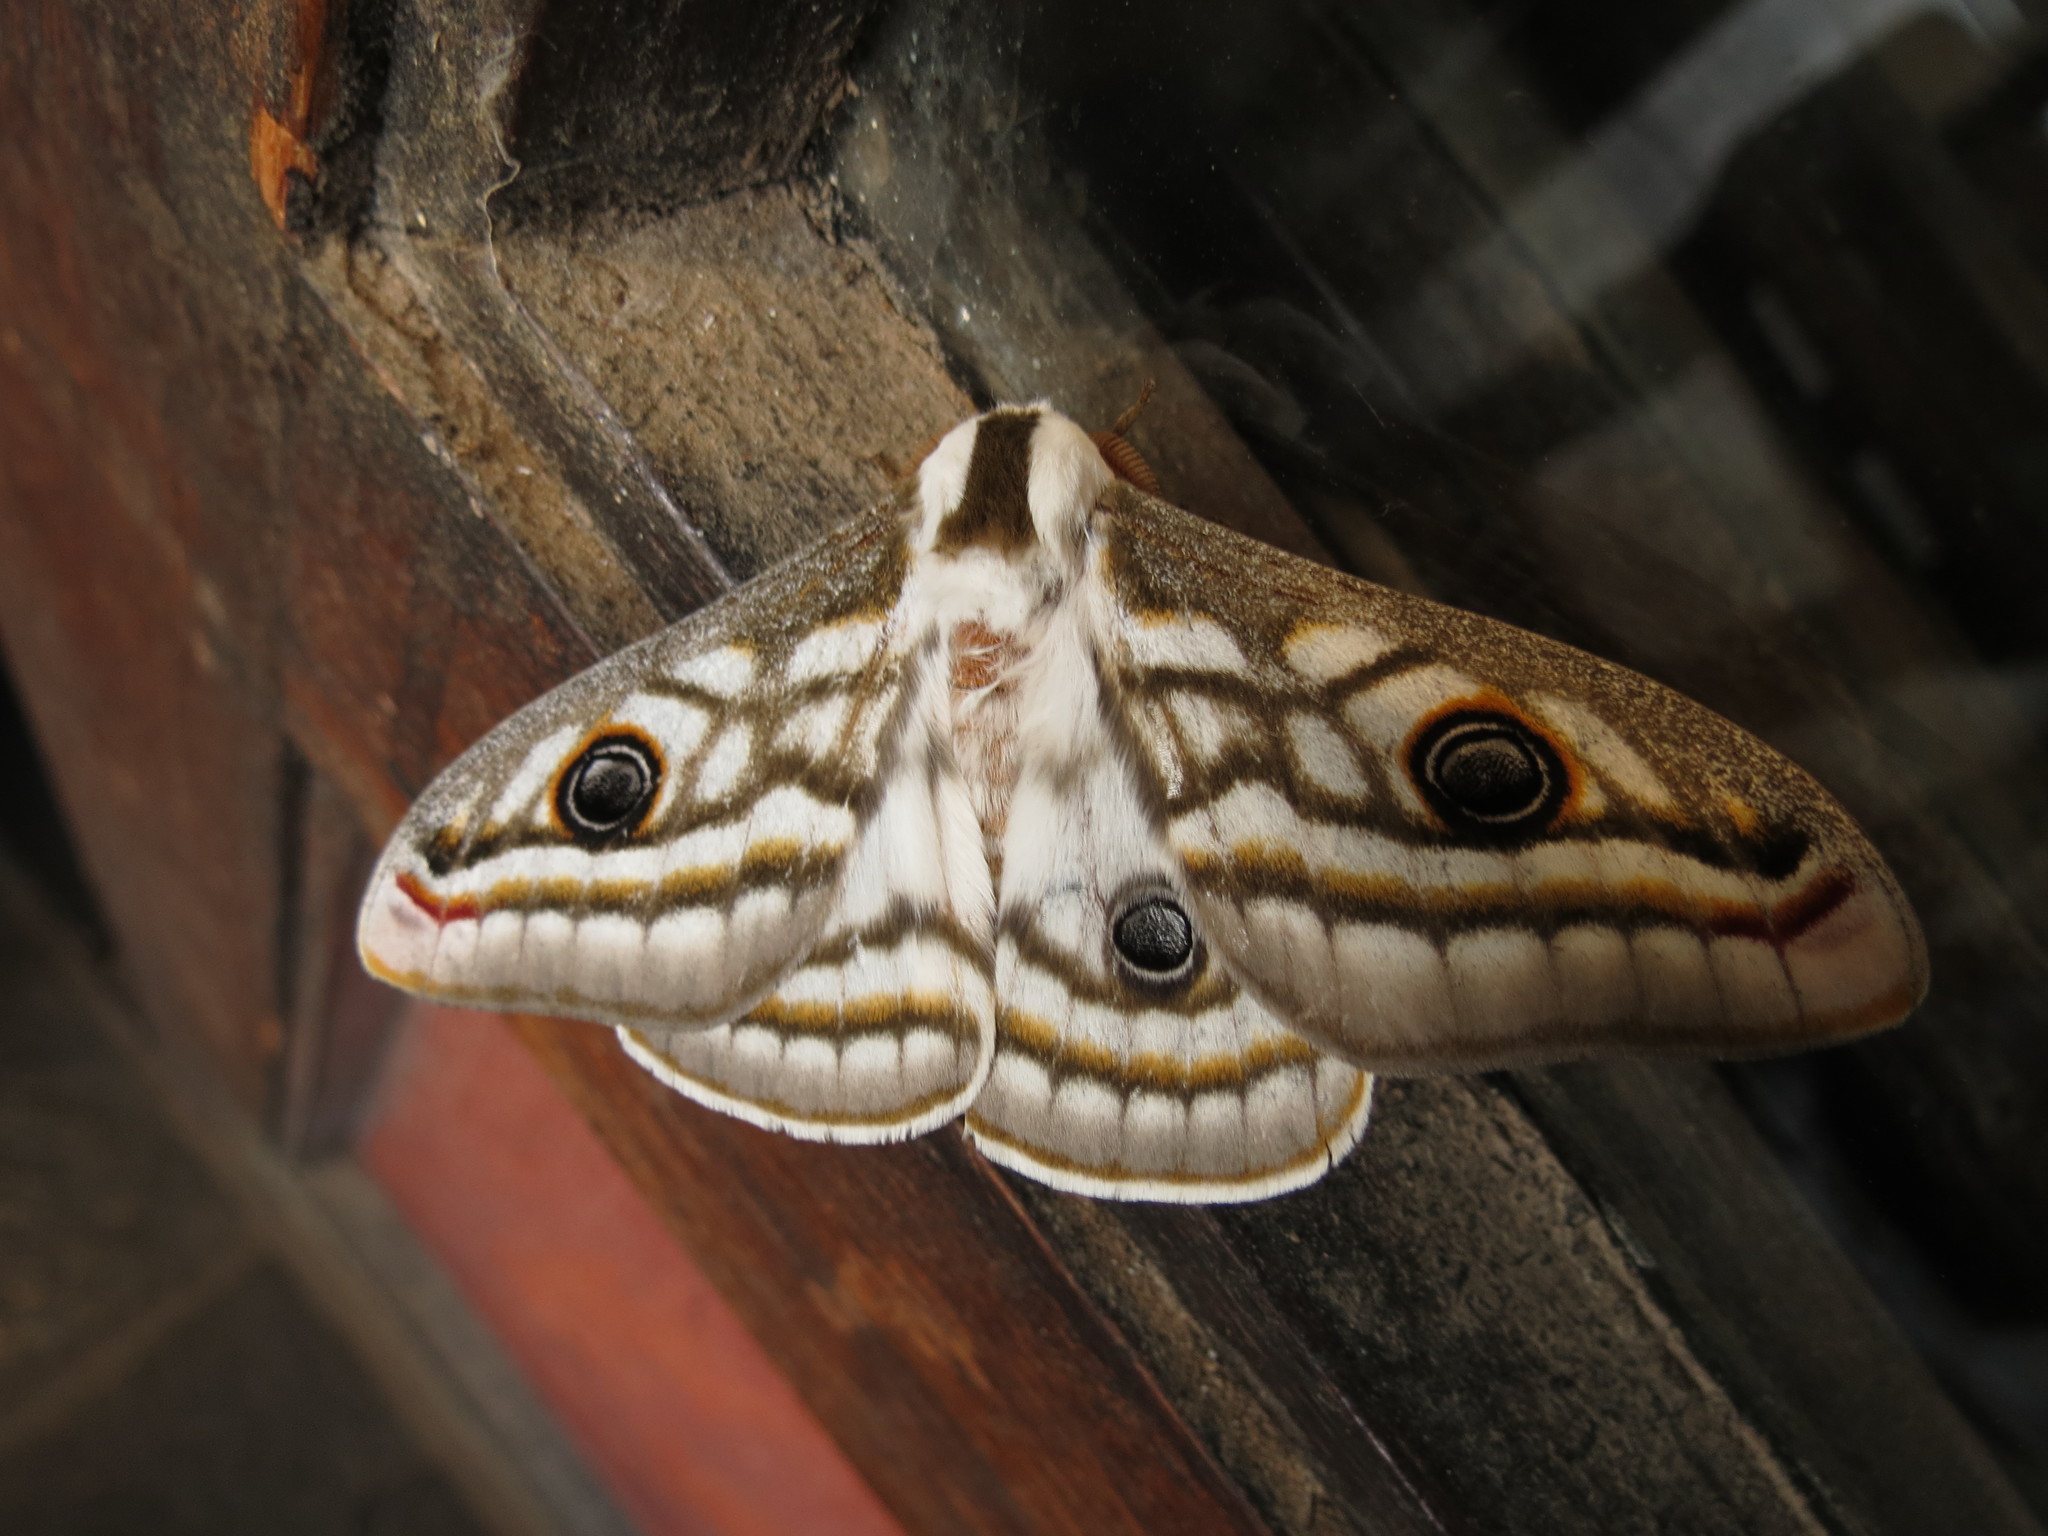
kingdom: Animalia
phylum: Arthropoda
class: Insecta
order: Lepidoptera
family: Saturniidae
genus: Heniocha
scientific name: Heniocha apollonia
